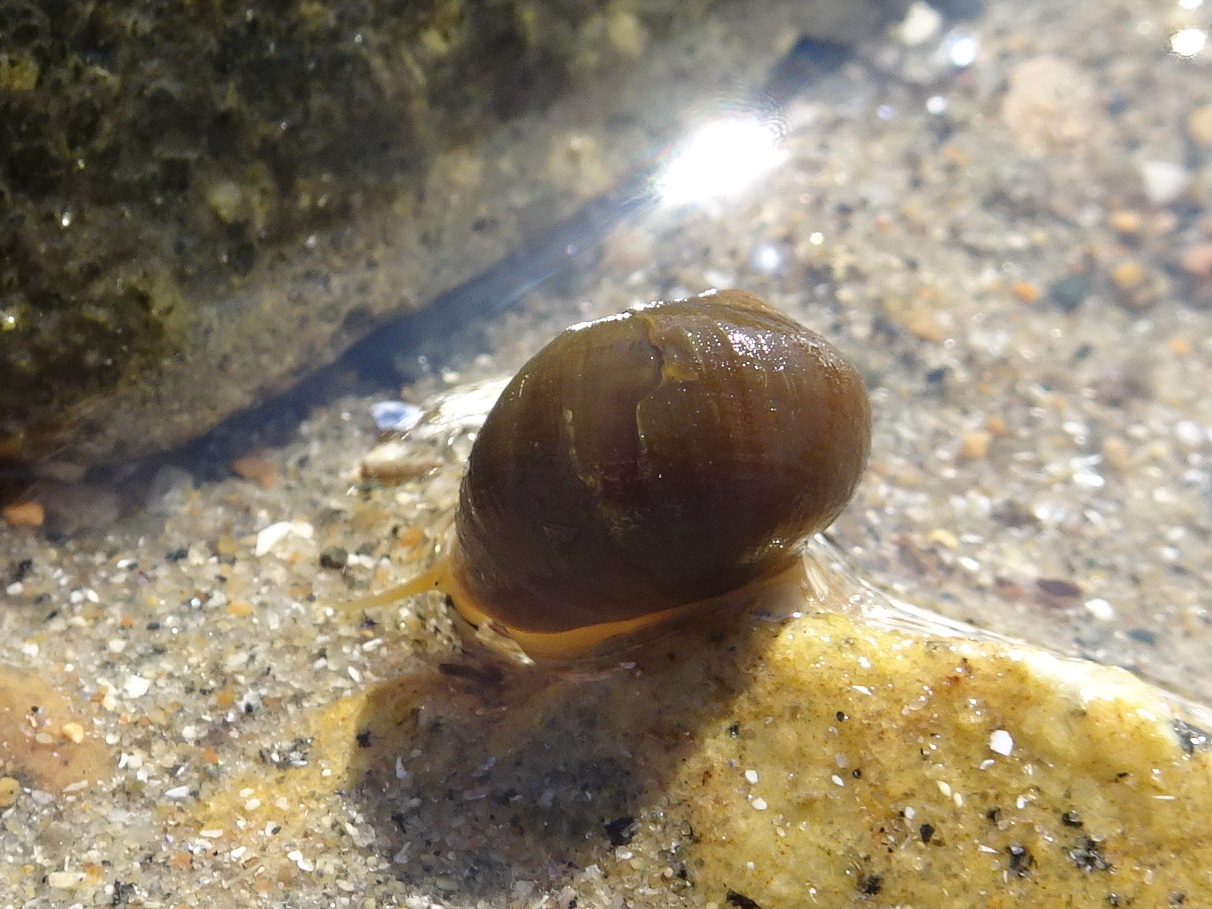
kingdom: Animalia
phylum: Mollusca
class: Gastropoda
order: Littorinimorpha
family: Littorinidae
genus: Littorina
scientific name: Littorina obtusata
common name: Flat periwinkle
